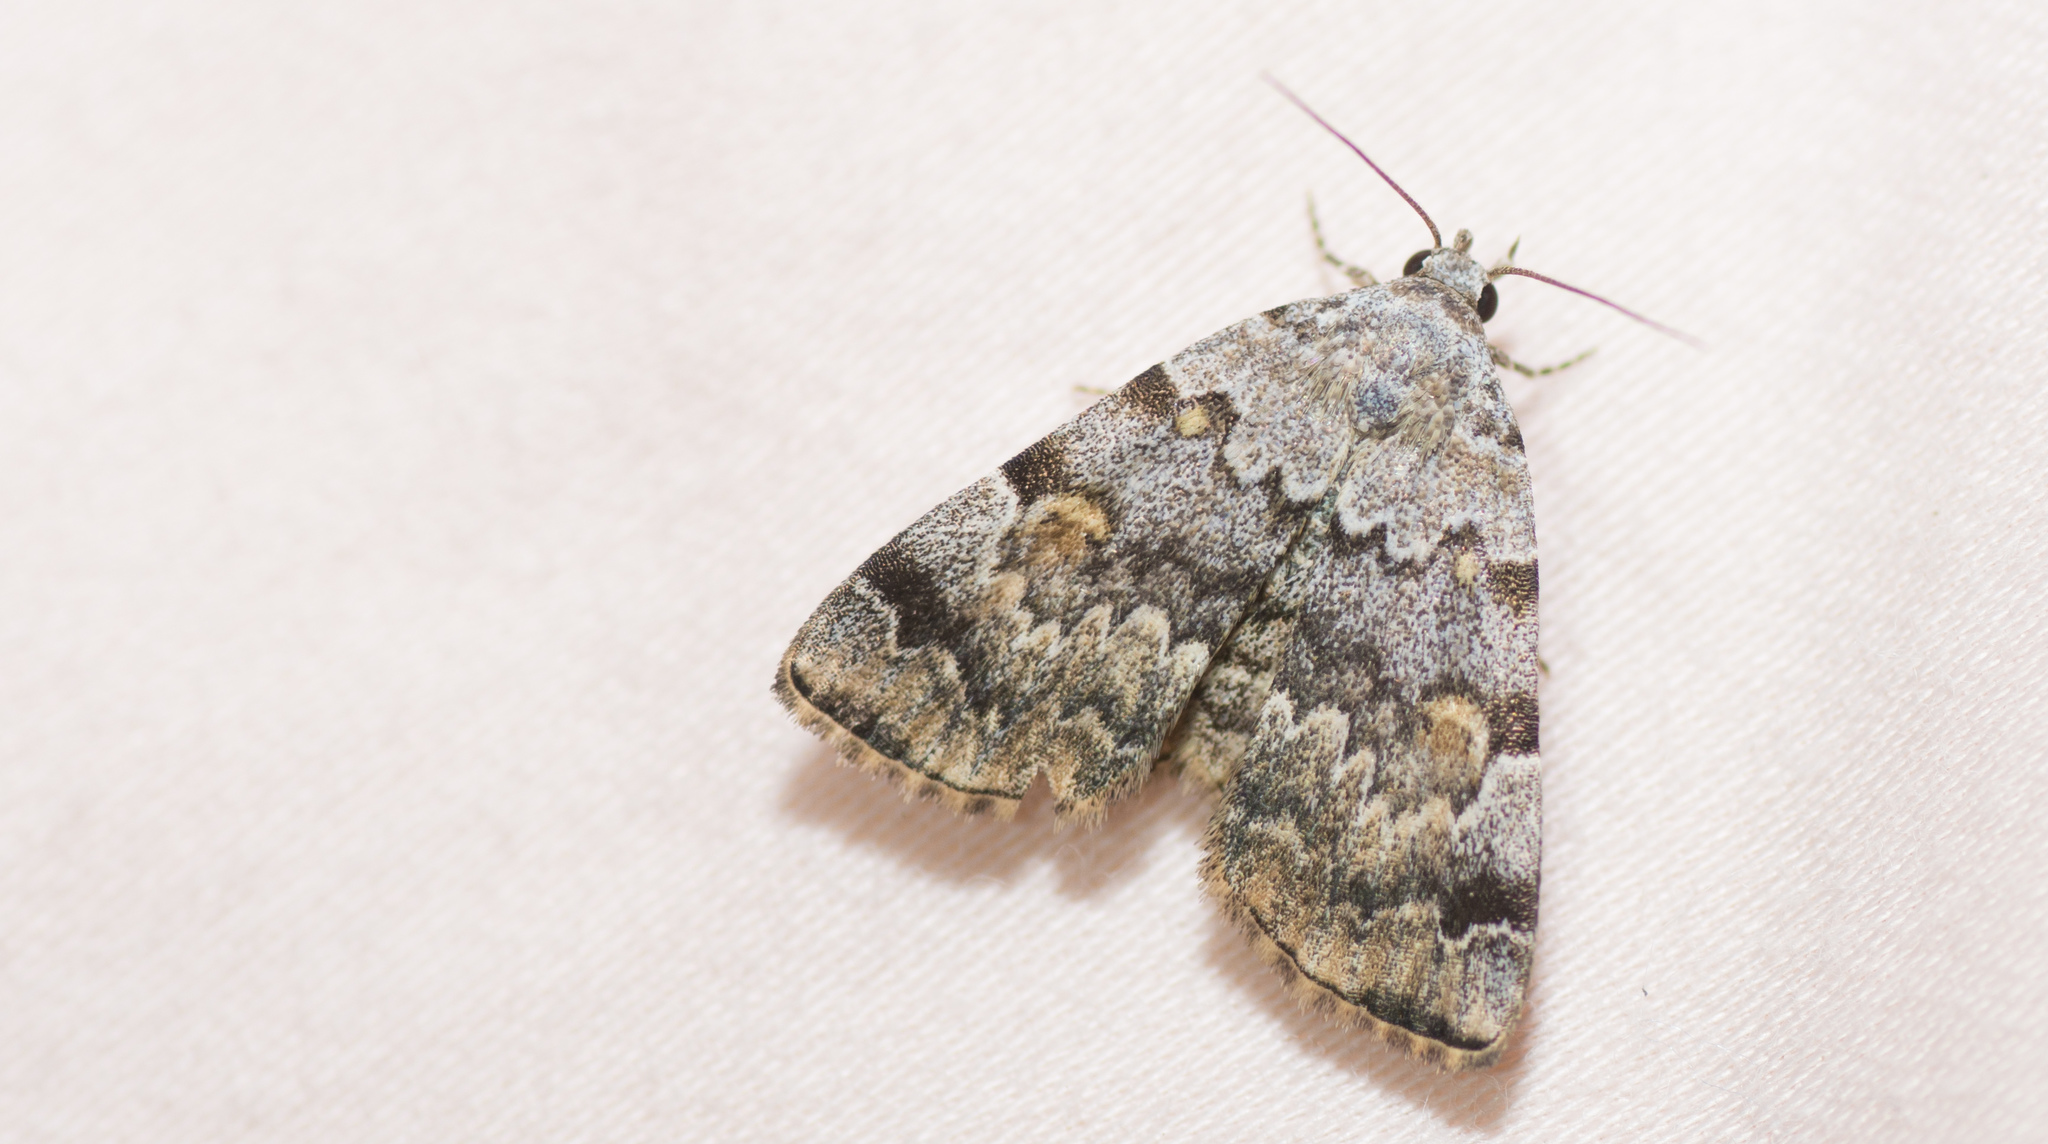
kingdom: Animalia
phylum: Arthropoda
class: Insecta
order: Lepidoptera
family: Erebidae
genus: Idia
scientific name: Idia americalis
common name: American idia moth
